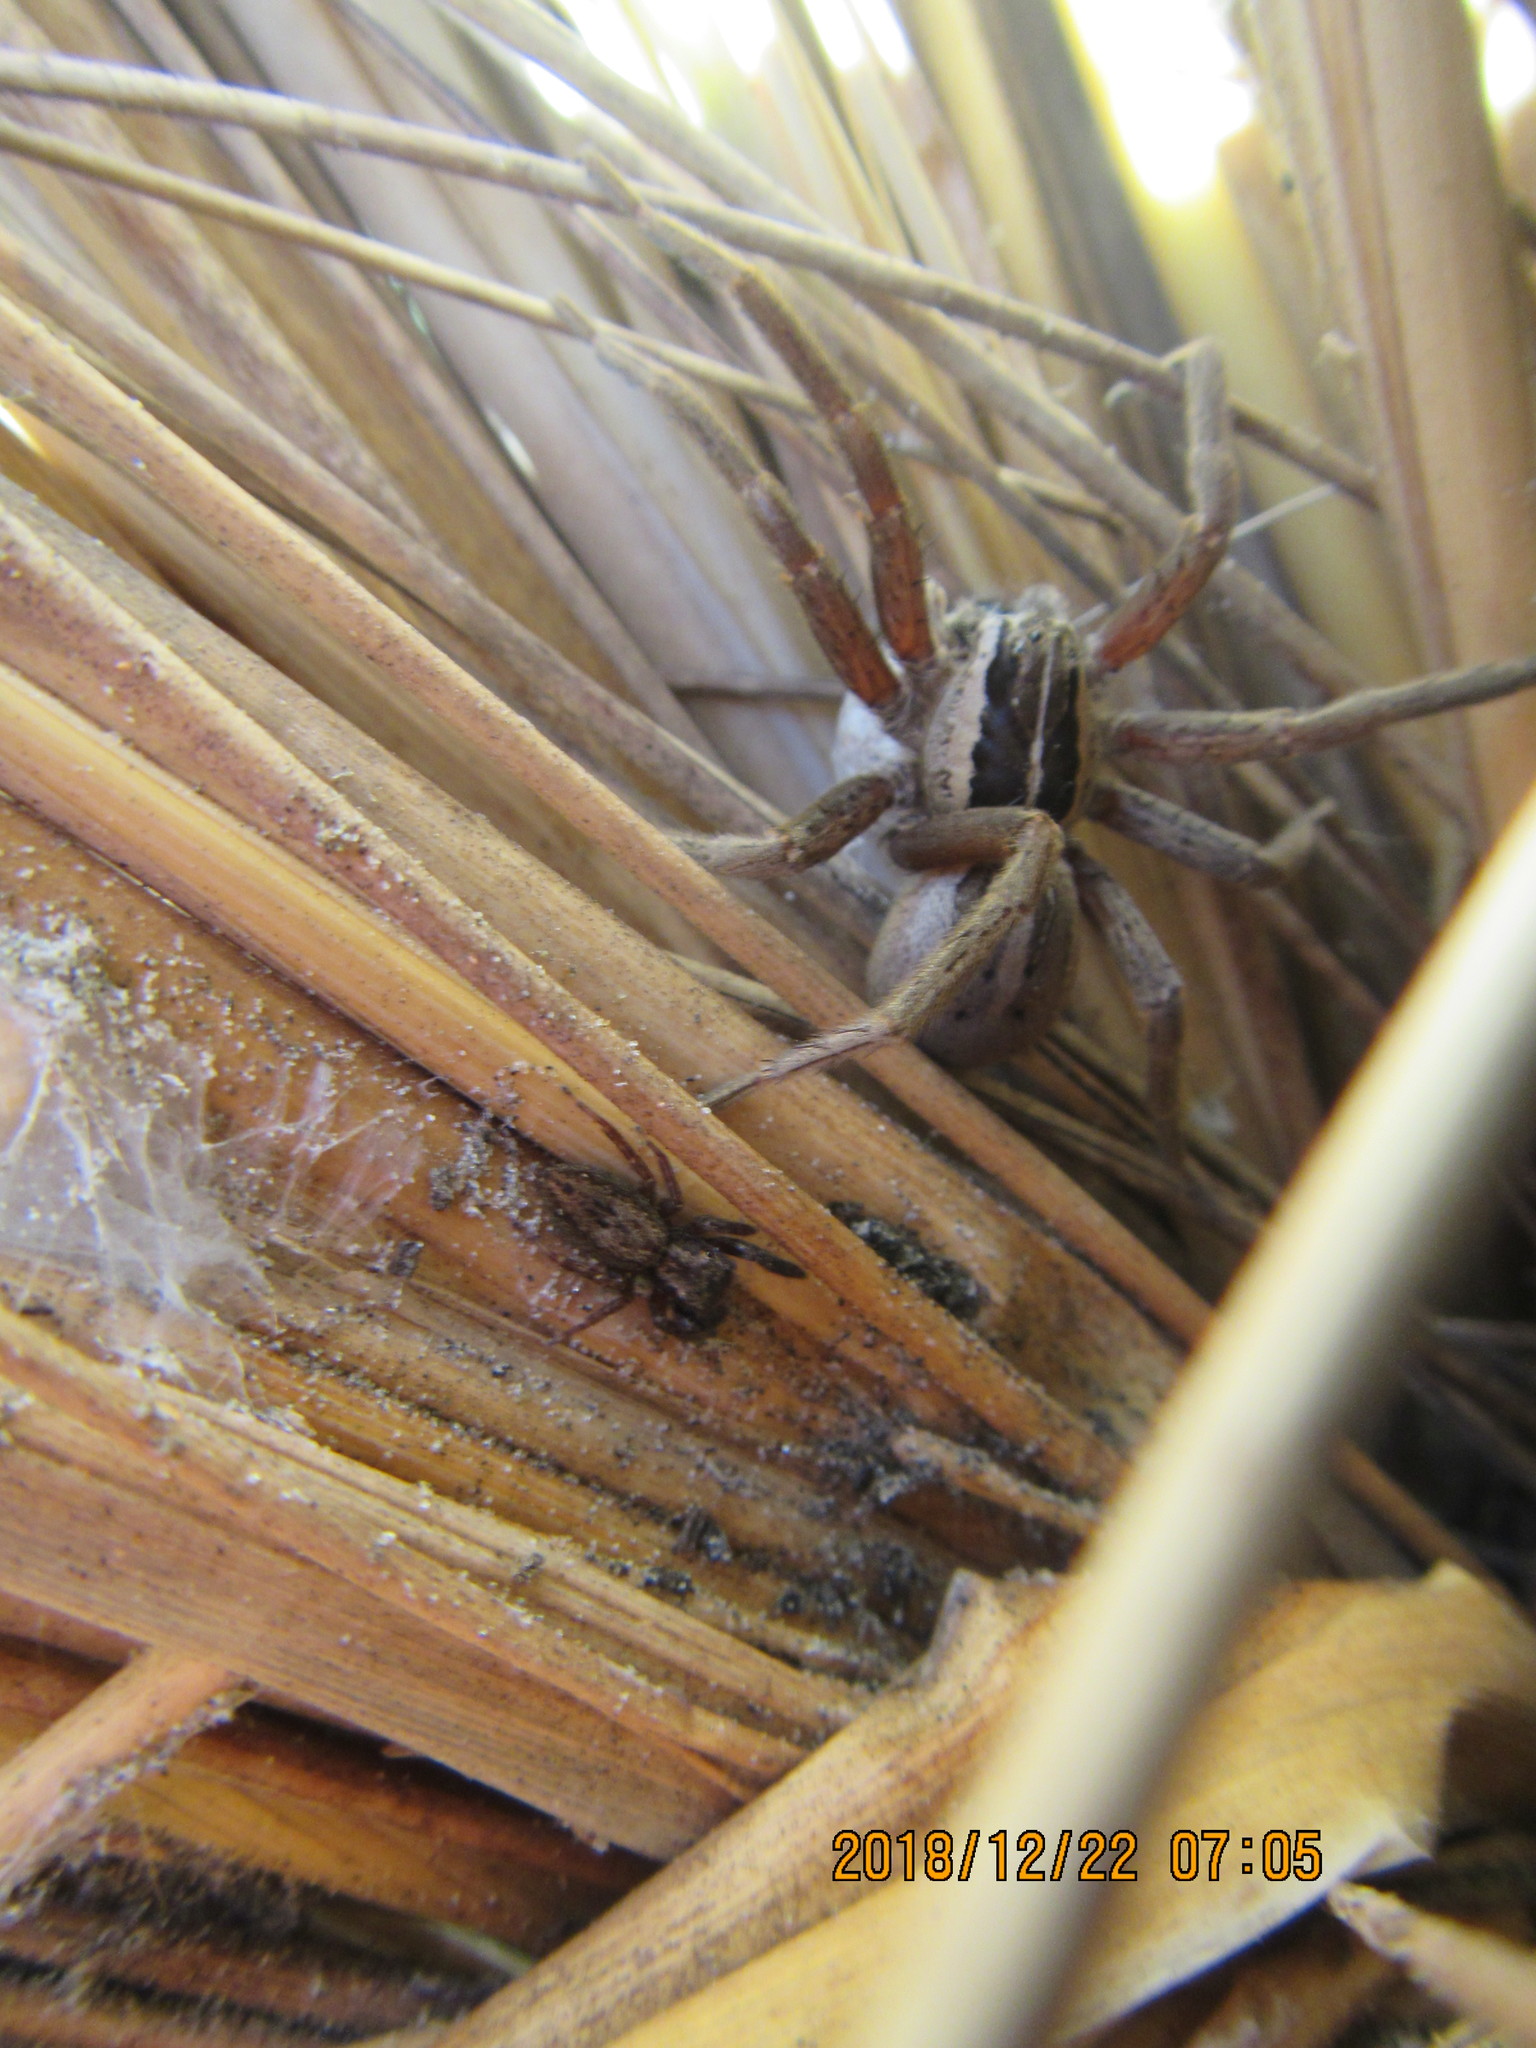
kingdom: Animalia
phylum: Arthropoda
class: Arachnida
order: Araneae
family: Pisauridae
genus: Dolomedes
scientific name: Dolomedes minor
